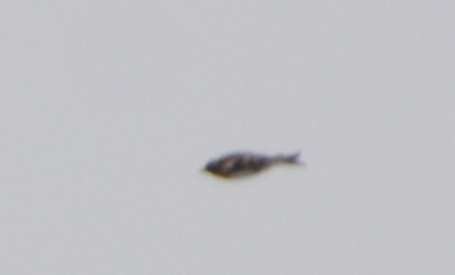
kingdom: Animalia
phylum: Chordata
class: Aves
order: Passeriformes
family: Fringillidae
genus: Fringilla
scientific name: Fringilla montifringilla
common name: Brambling
